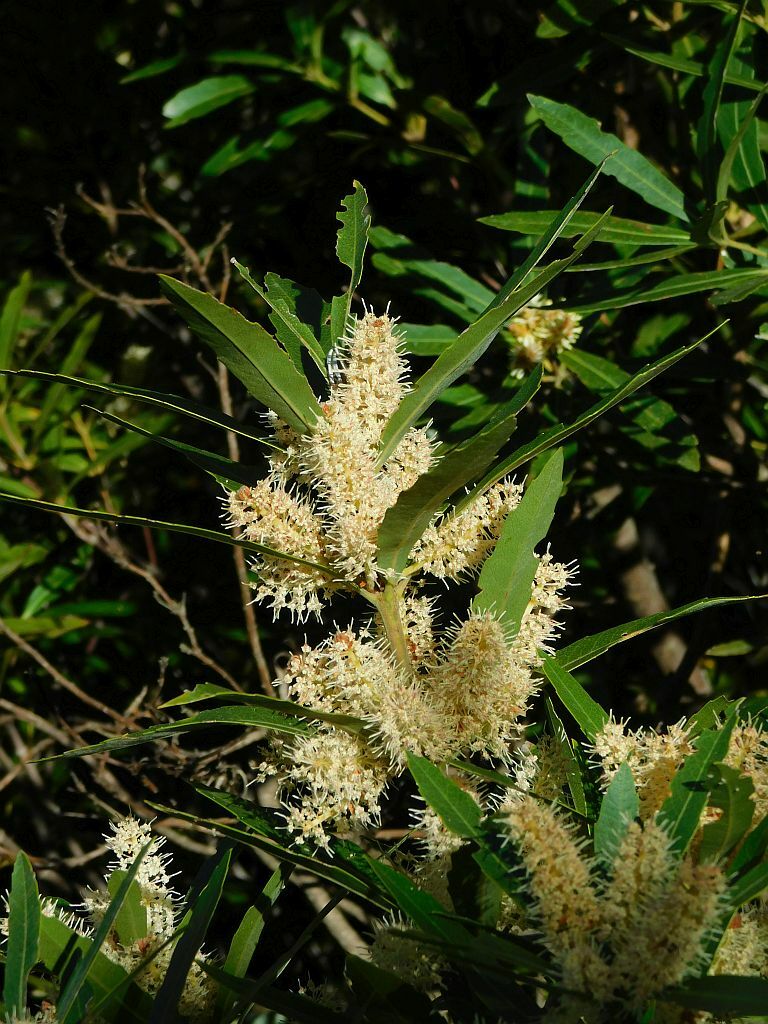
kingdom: Plantae
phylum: Tracheophyta
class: Magnoliopsida
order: Proteales
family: Proteaceae
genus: Brabejum
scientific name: Brabejum stellatifolium
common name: Wild almond
